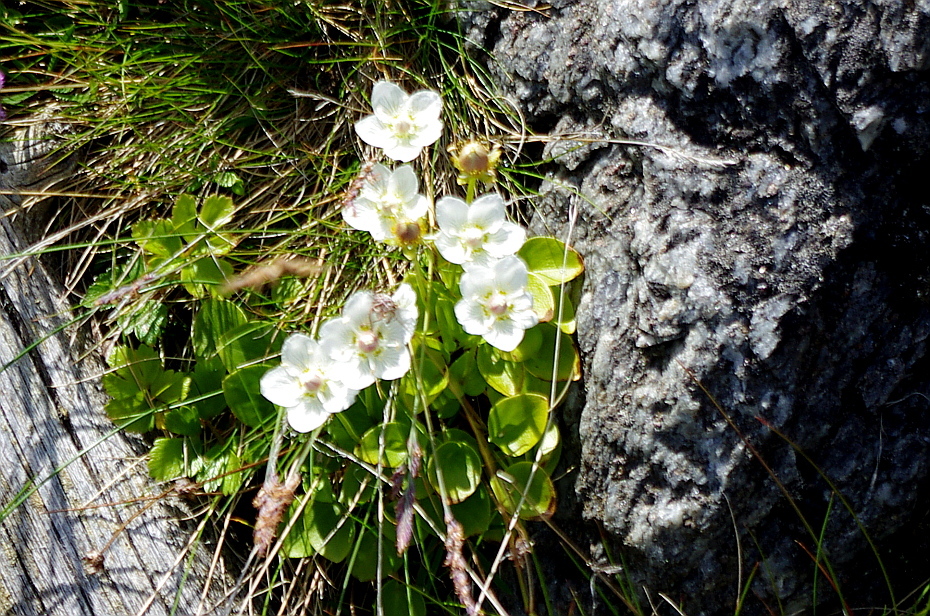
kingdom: Plantae
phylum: Tracheophyta
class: Magnoliopsida
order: Celastrales
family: Parnassiaceae
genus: Parnassia
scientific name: Parnassia palustris
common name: Grass-of-parnassus
